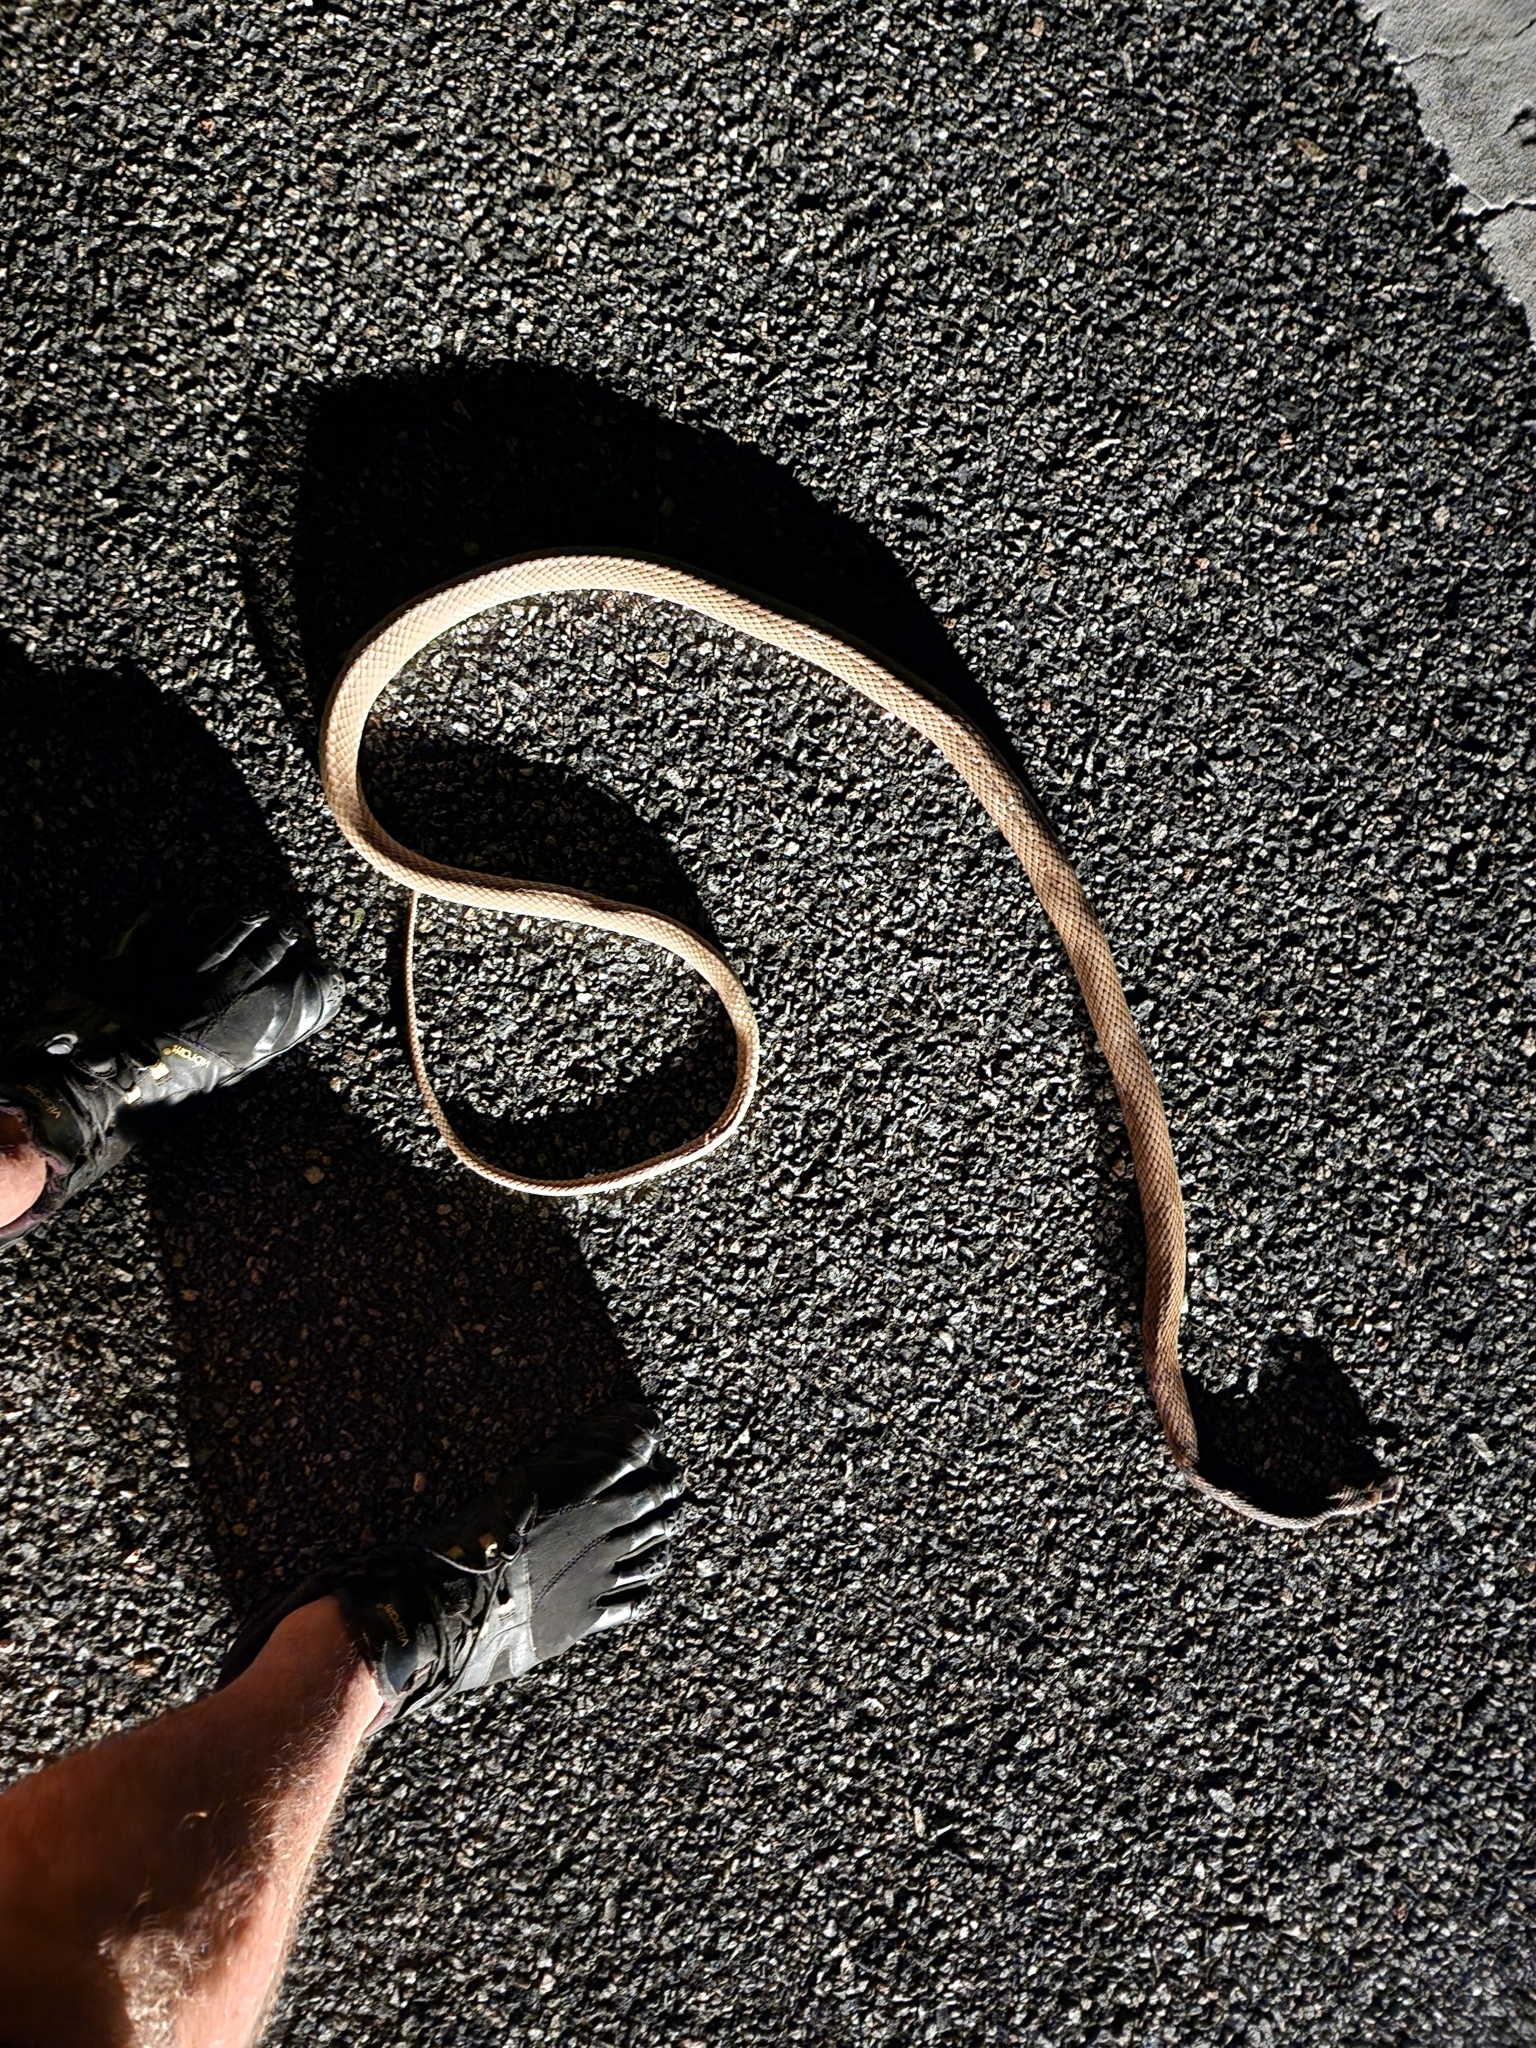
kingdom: Animalia
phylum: Chordata
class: Squamata
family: Colubridae
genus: Masticophis
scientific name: Masticophis flagellum
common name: Coachwhip
